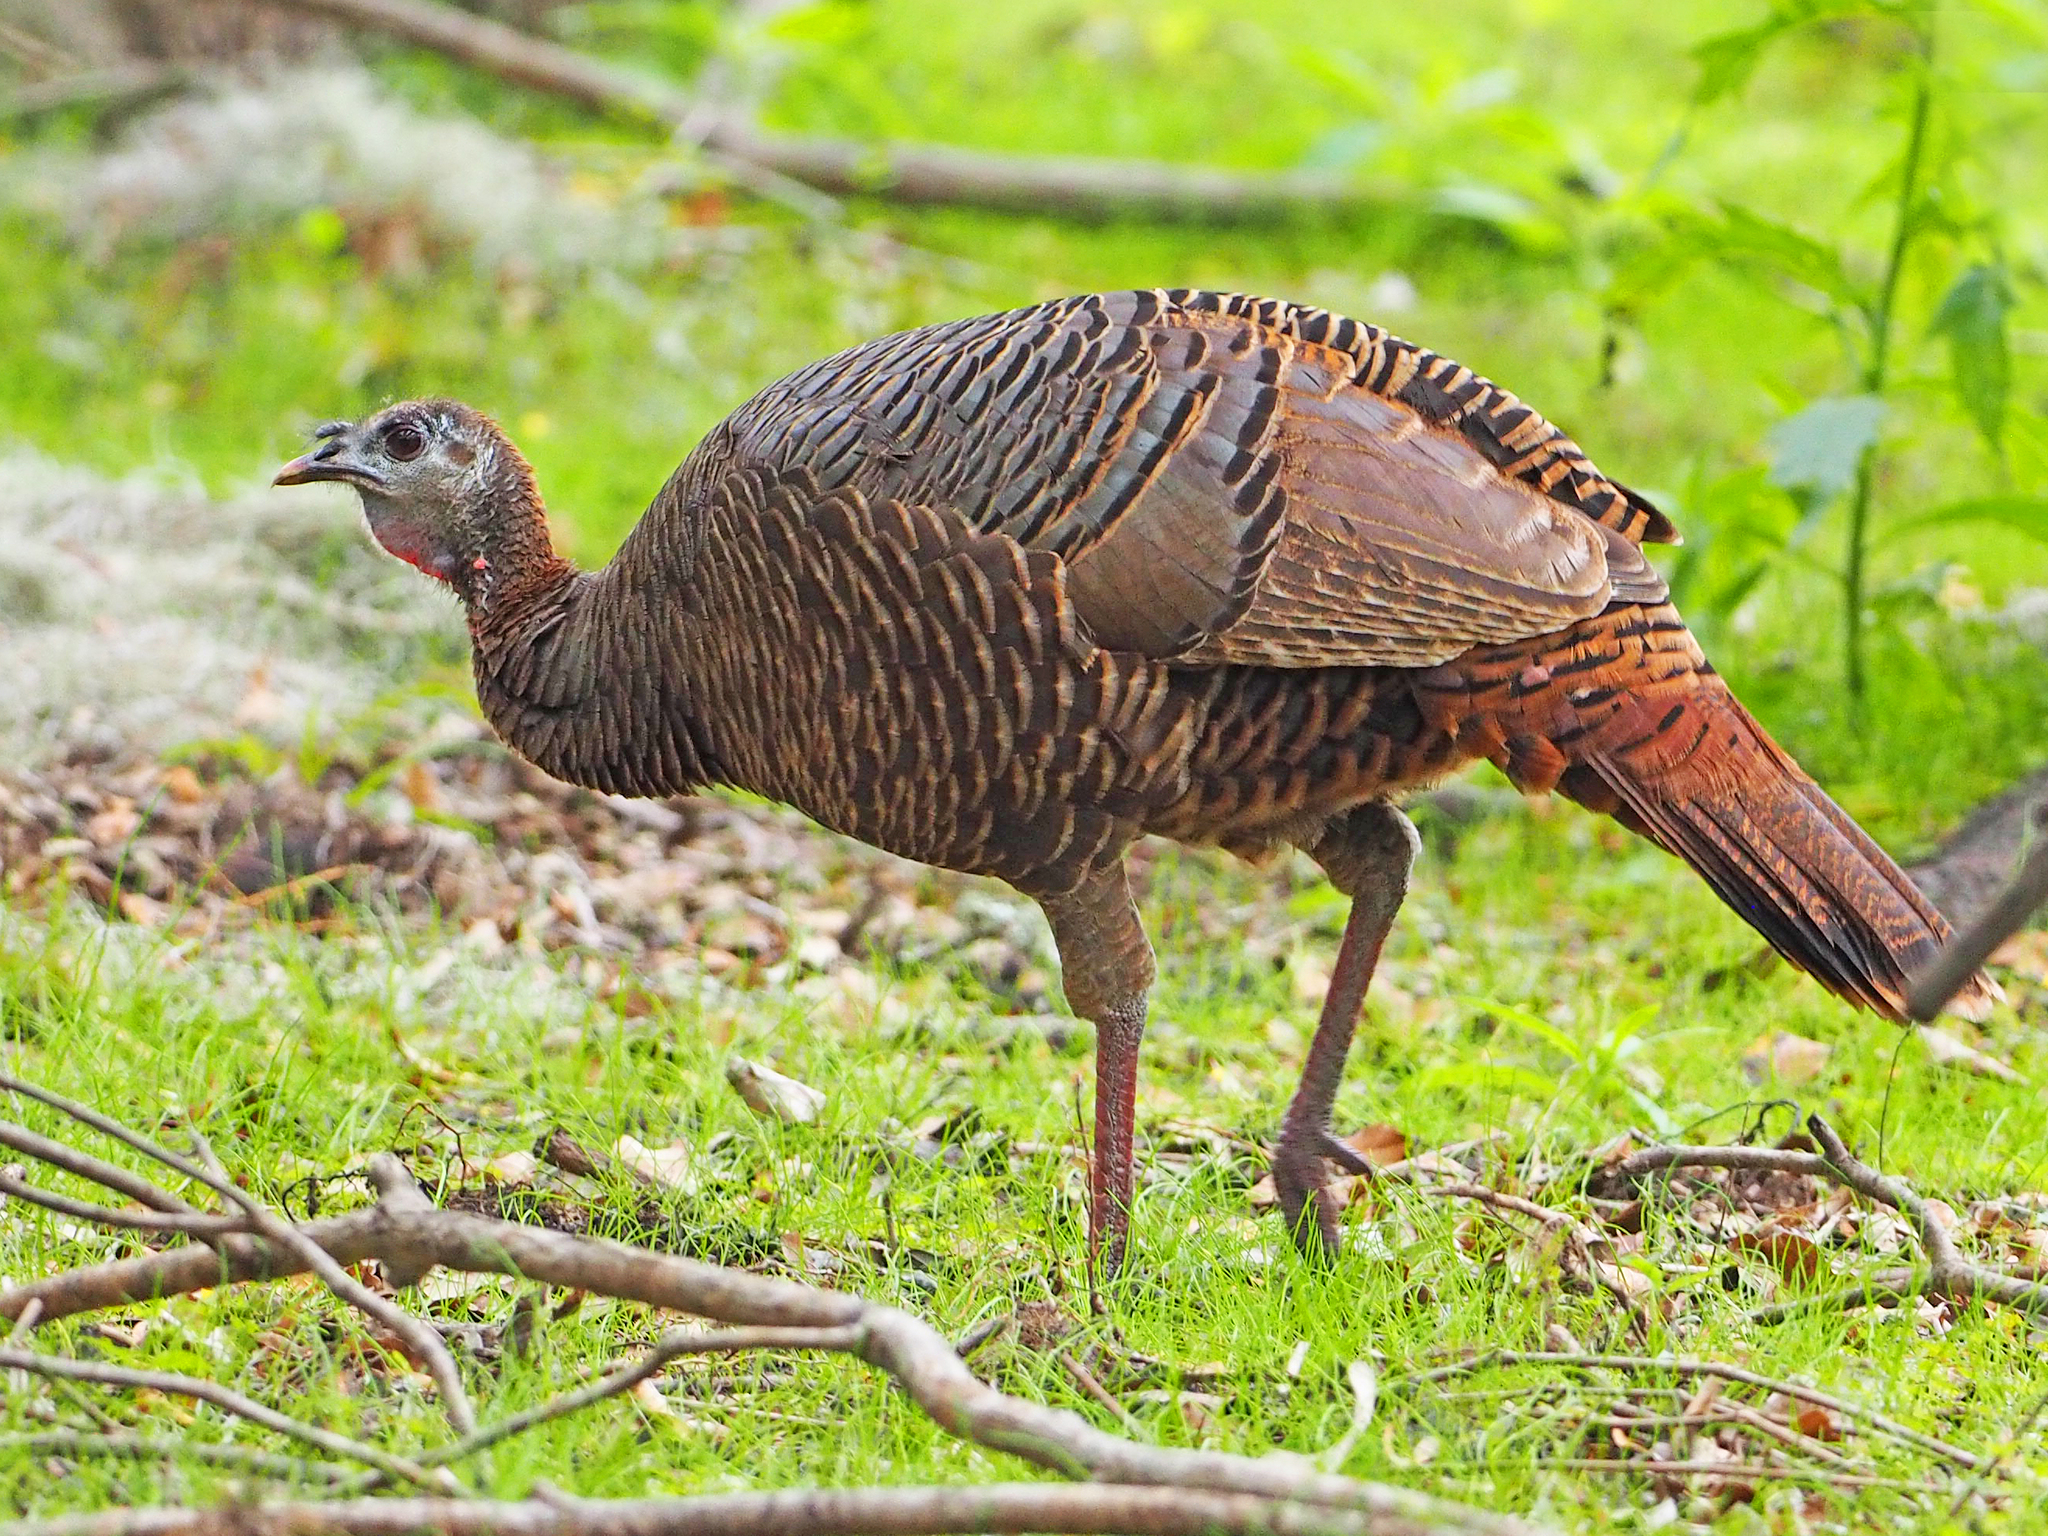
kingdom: Animalia
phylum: Chordata
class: Aves
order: Galliformes
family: Phasianidae
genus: Meleagris
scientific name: Meleagris gallopavo
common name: Wild turkey
